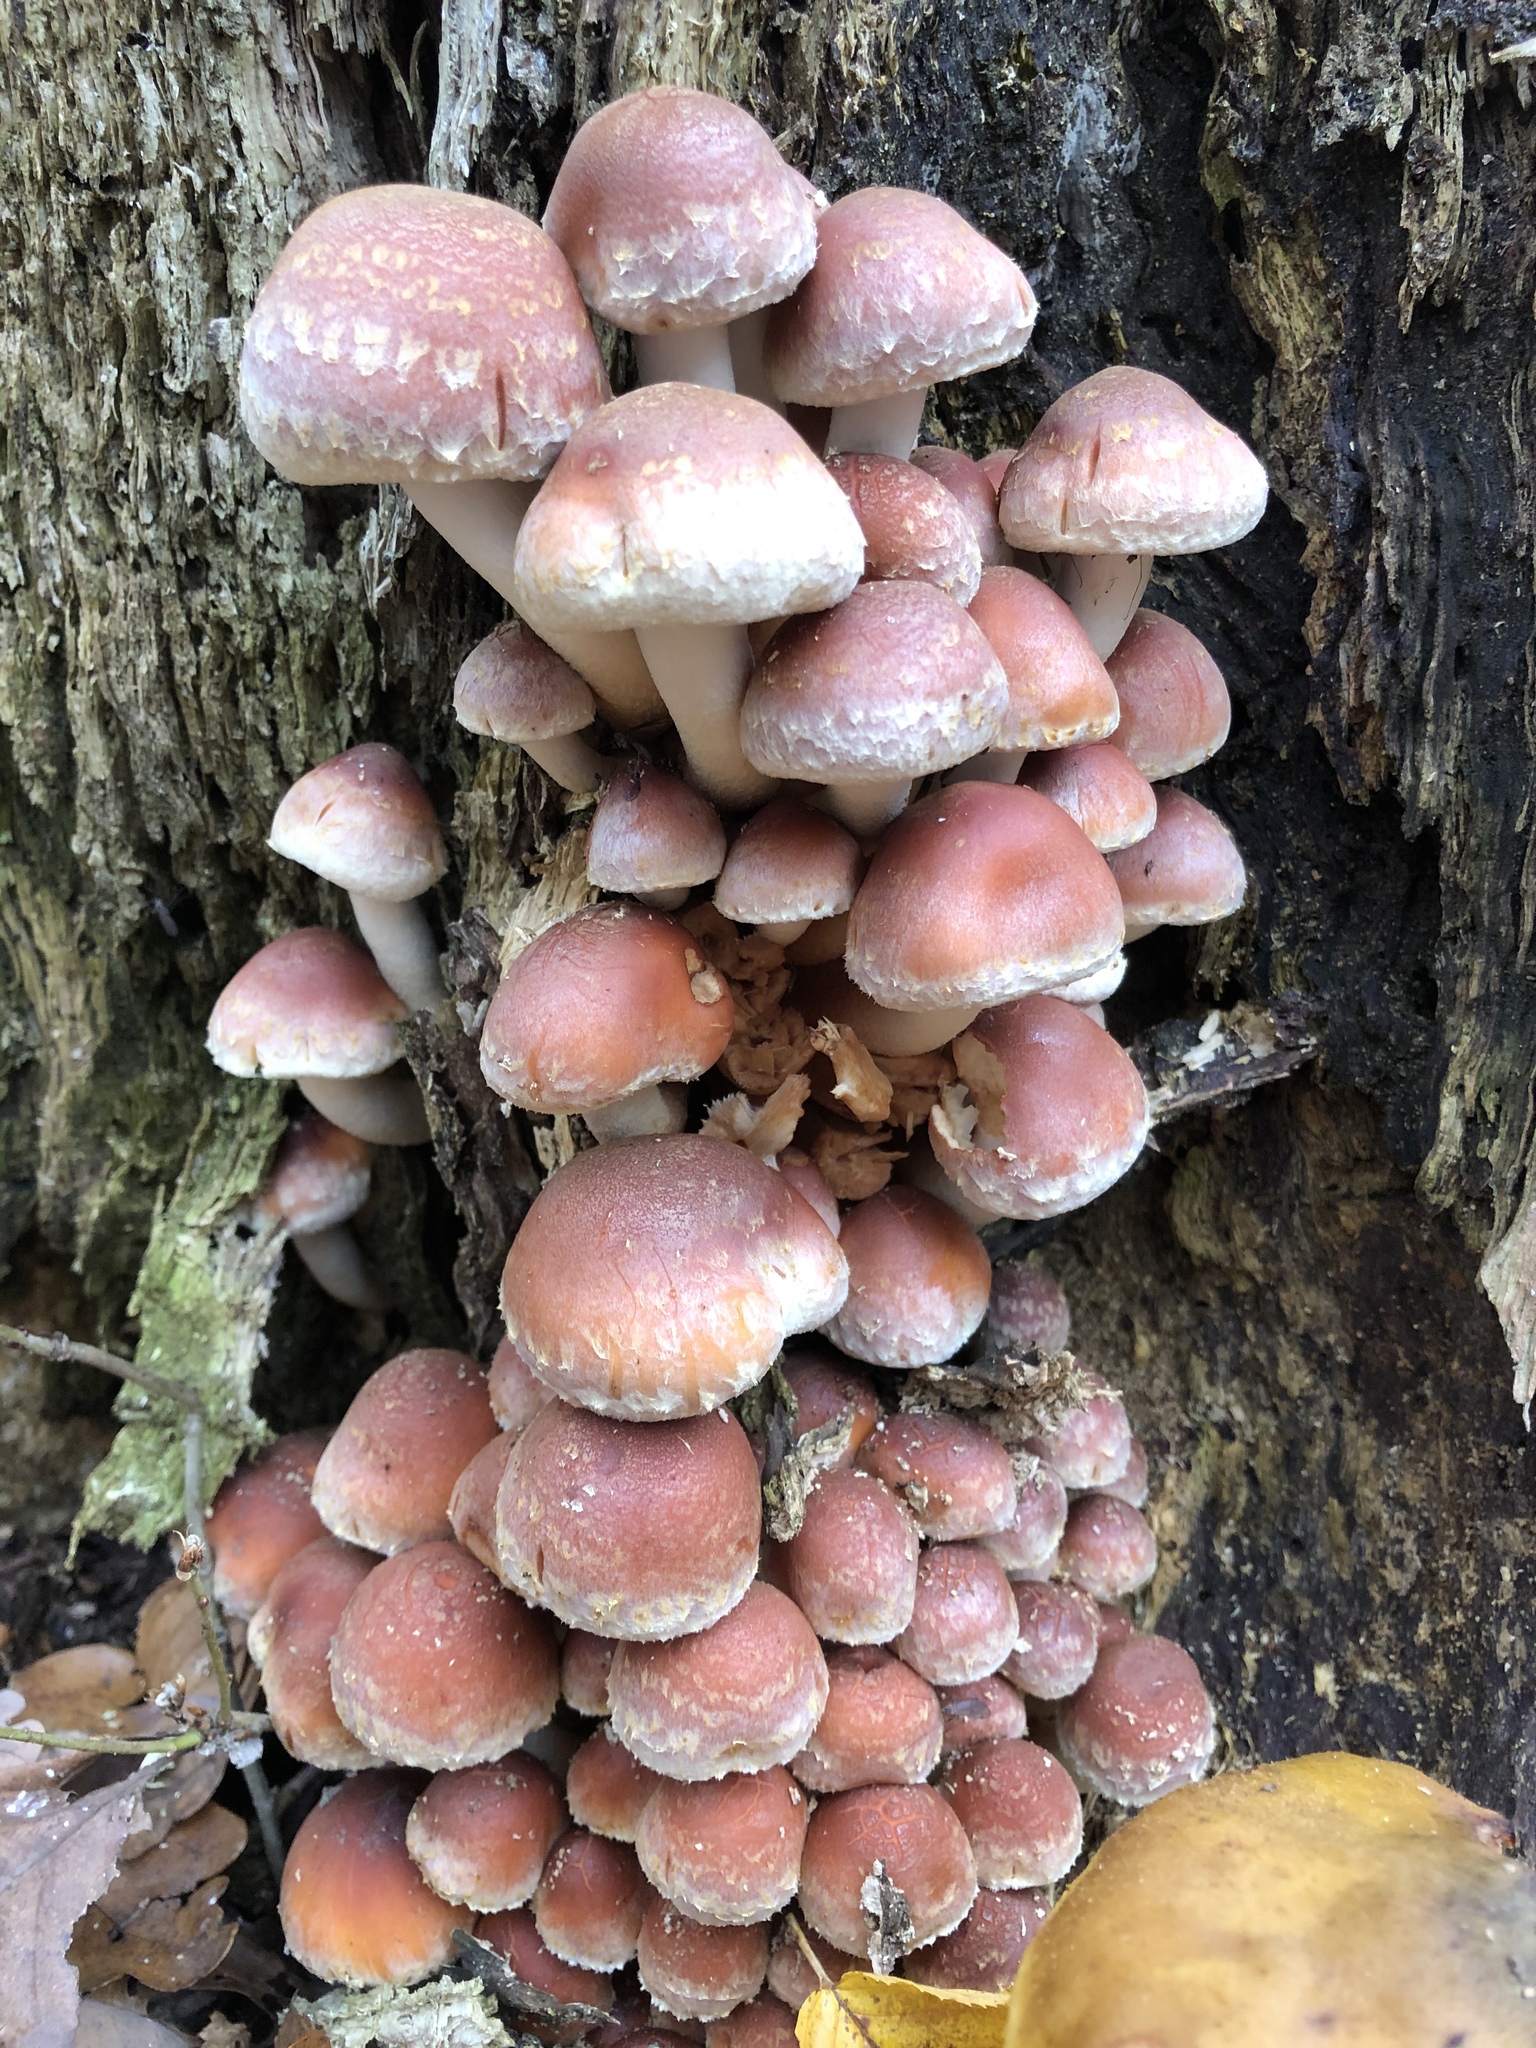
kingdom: Fungi
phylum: Basidiomycota
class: Agaricomycetes
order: Agaricales
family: Strophariaceae
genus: Hypholoma
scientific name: Hypholoma lateritium
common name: Brick caps
